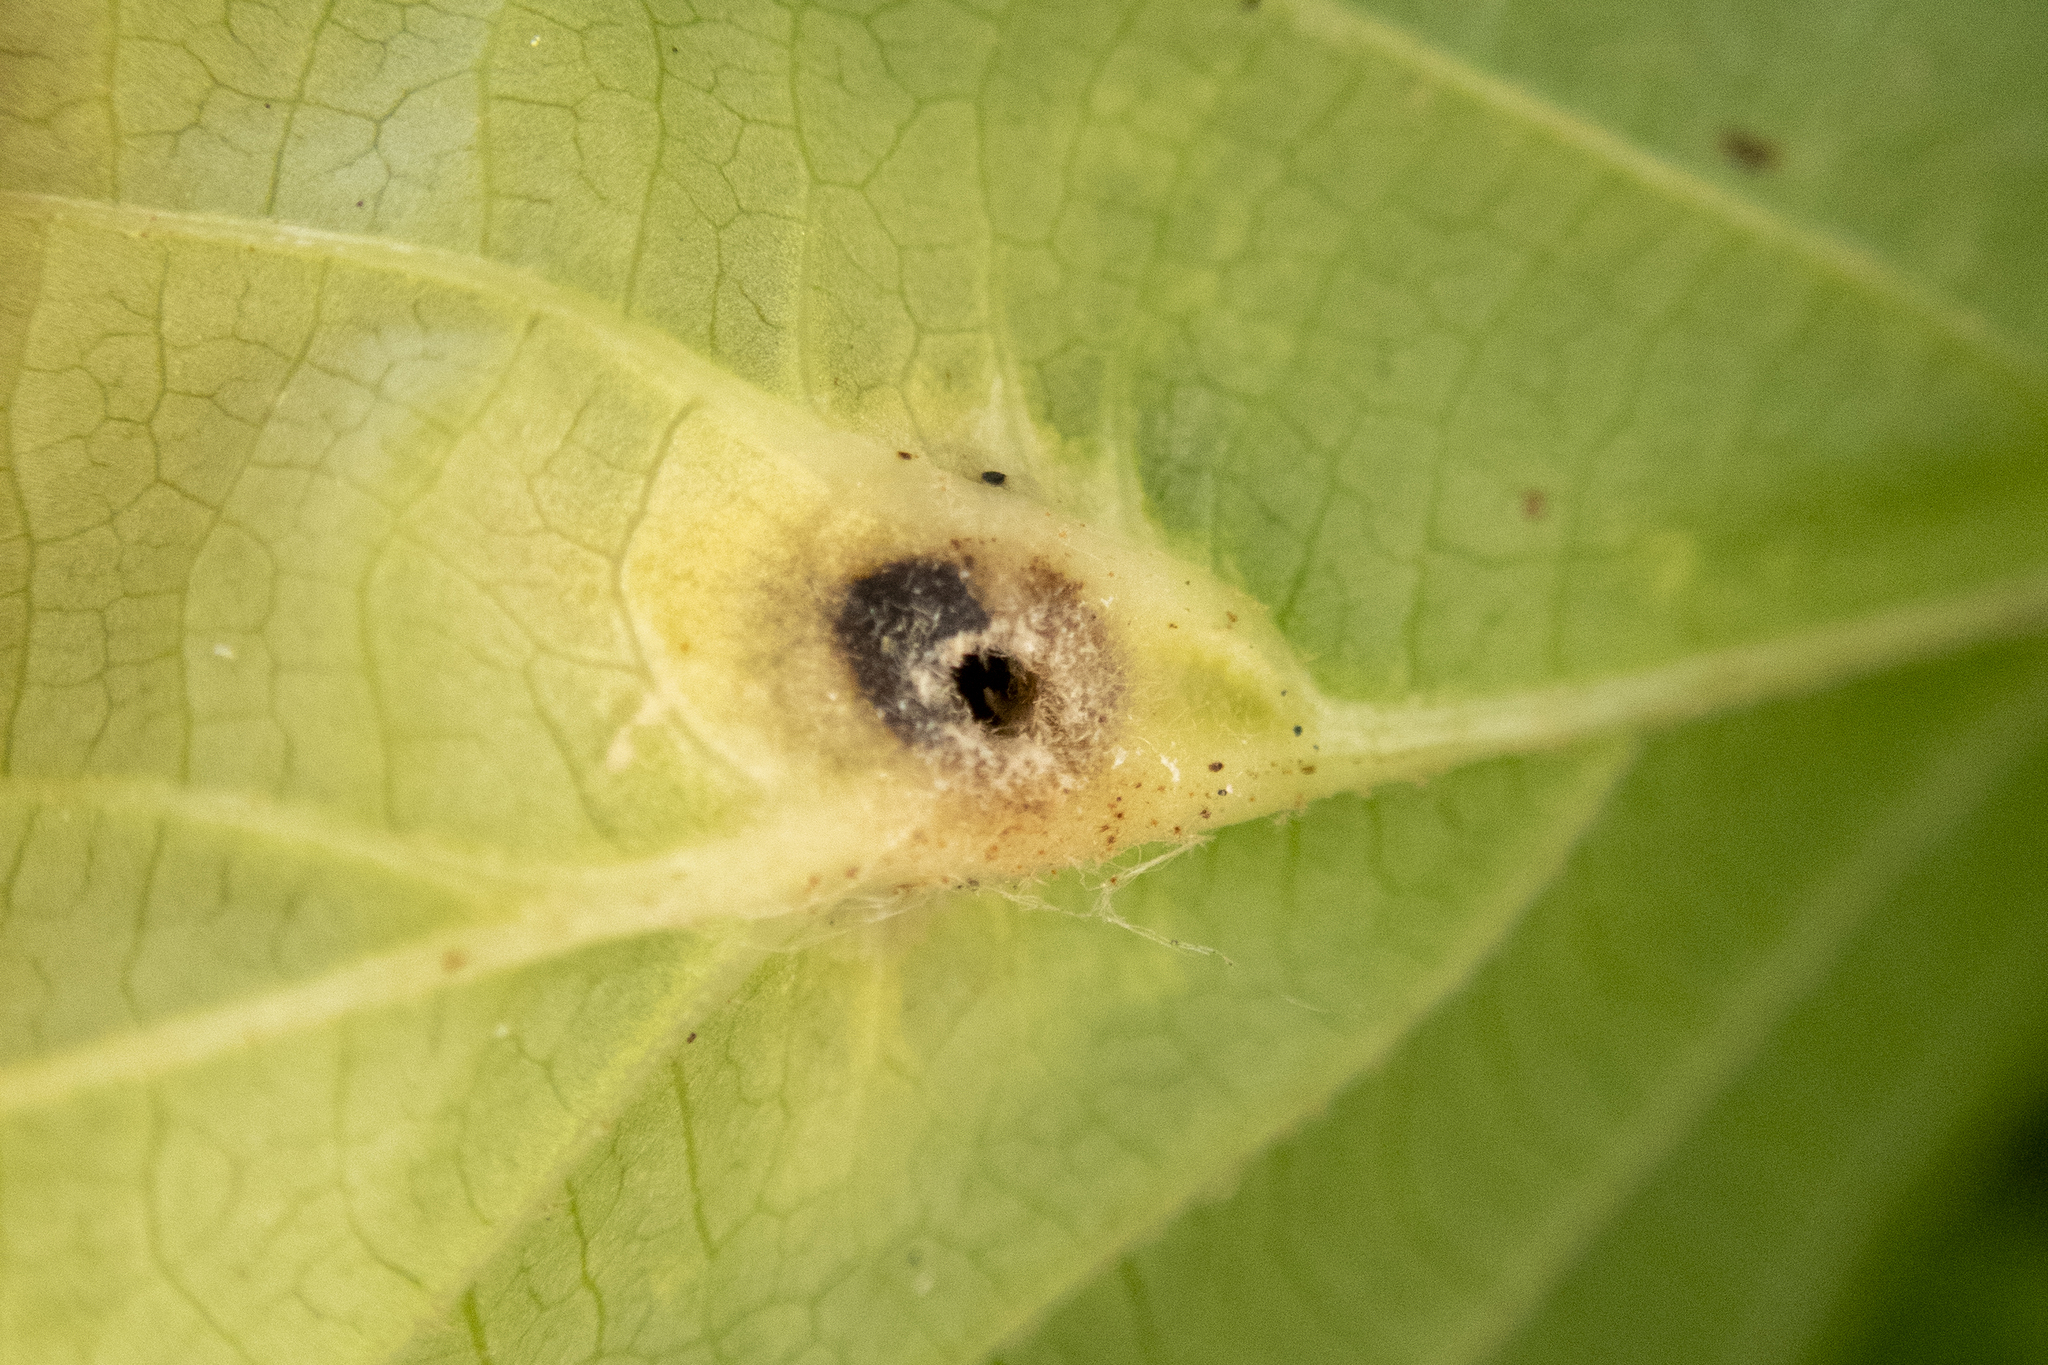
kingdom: Animalia
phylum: Arthropoda
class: Insecta
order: Hemiptera
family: Aphididae
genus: Hormaphis
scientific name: Hormaphis hamamelidis
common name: Witch-hazel cone gall aphid
